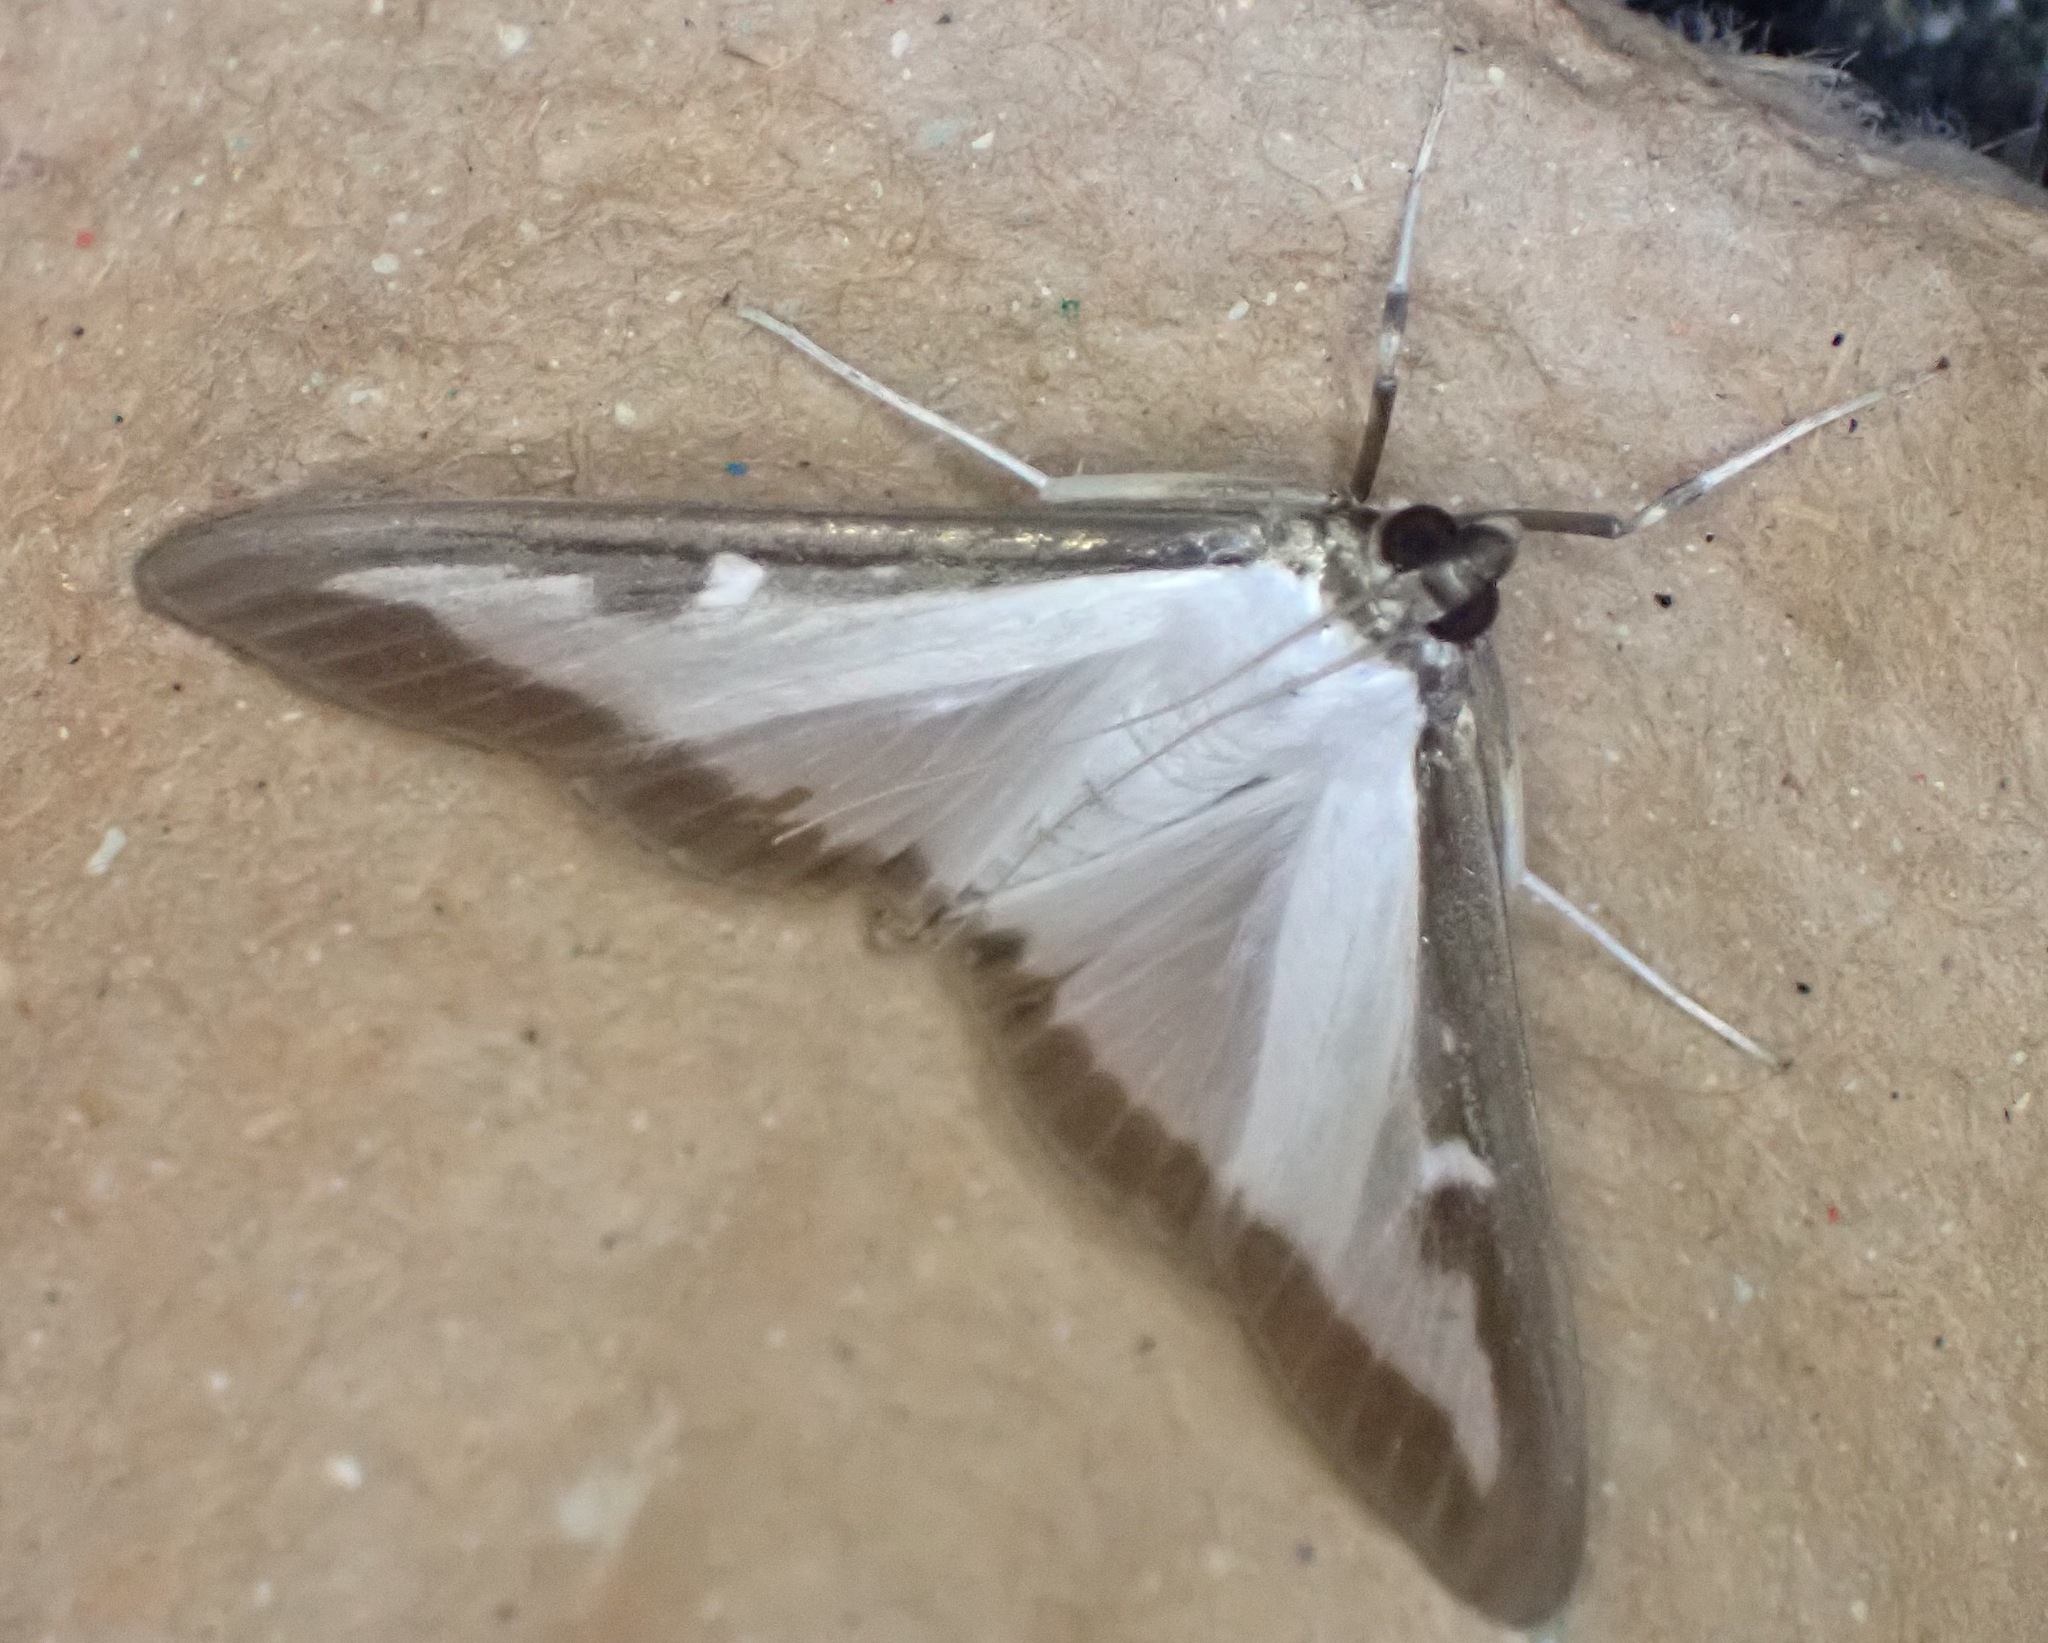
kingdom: Animalia
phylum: Arthropoda
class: Insecta
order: Lepidoptera
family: Crambidae
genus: Cydalima
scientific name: Cydalima perspectalis
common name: Box tree moth
